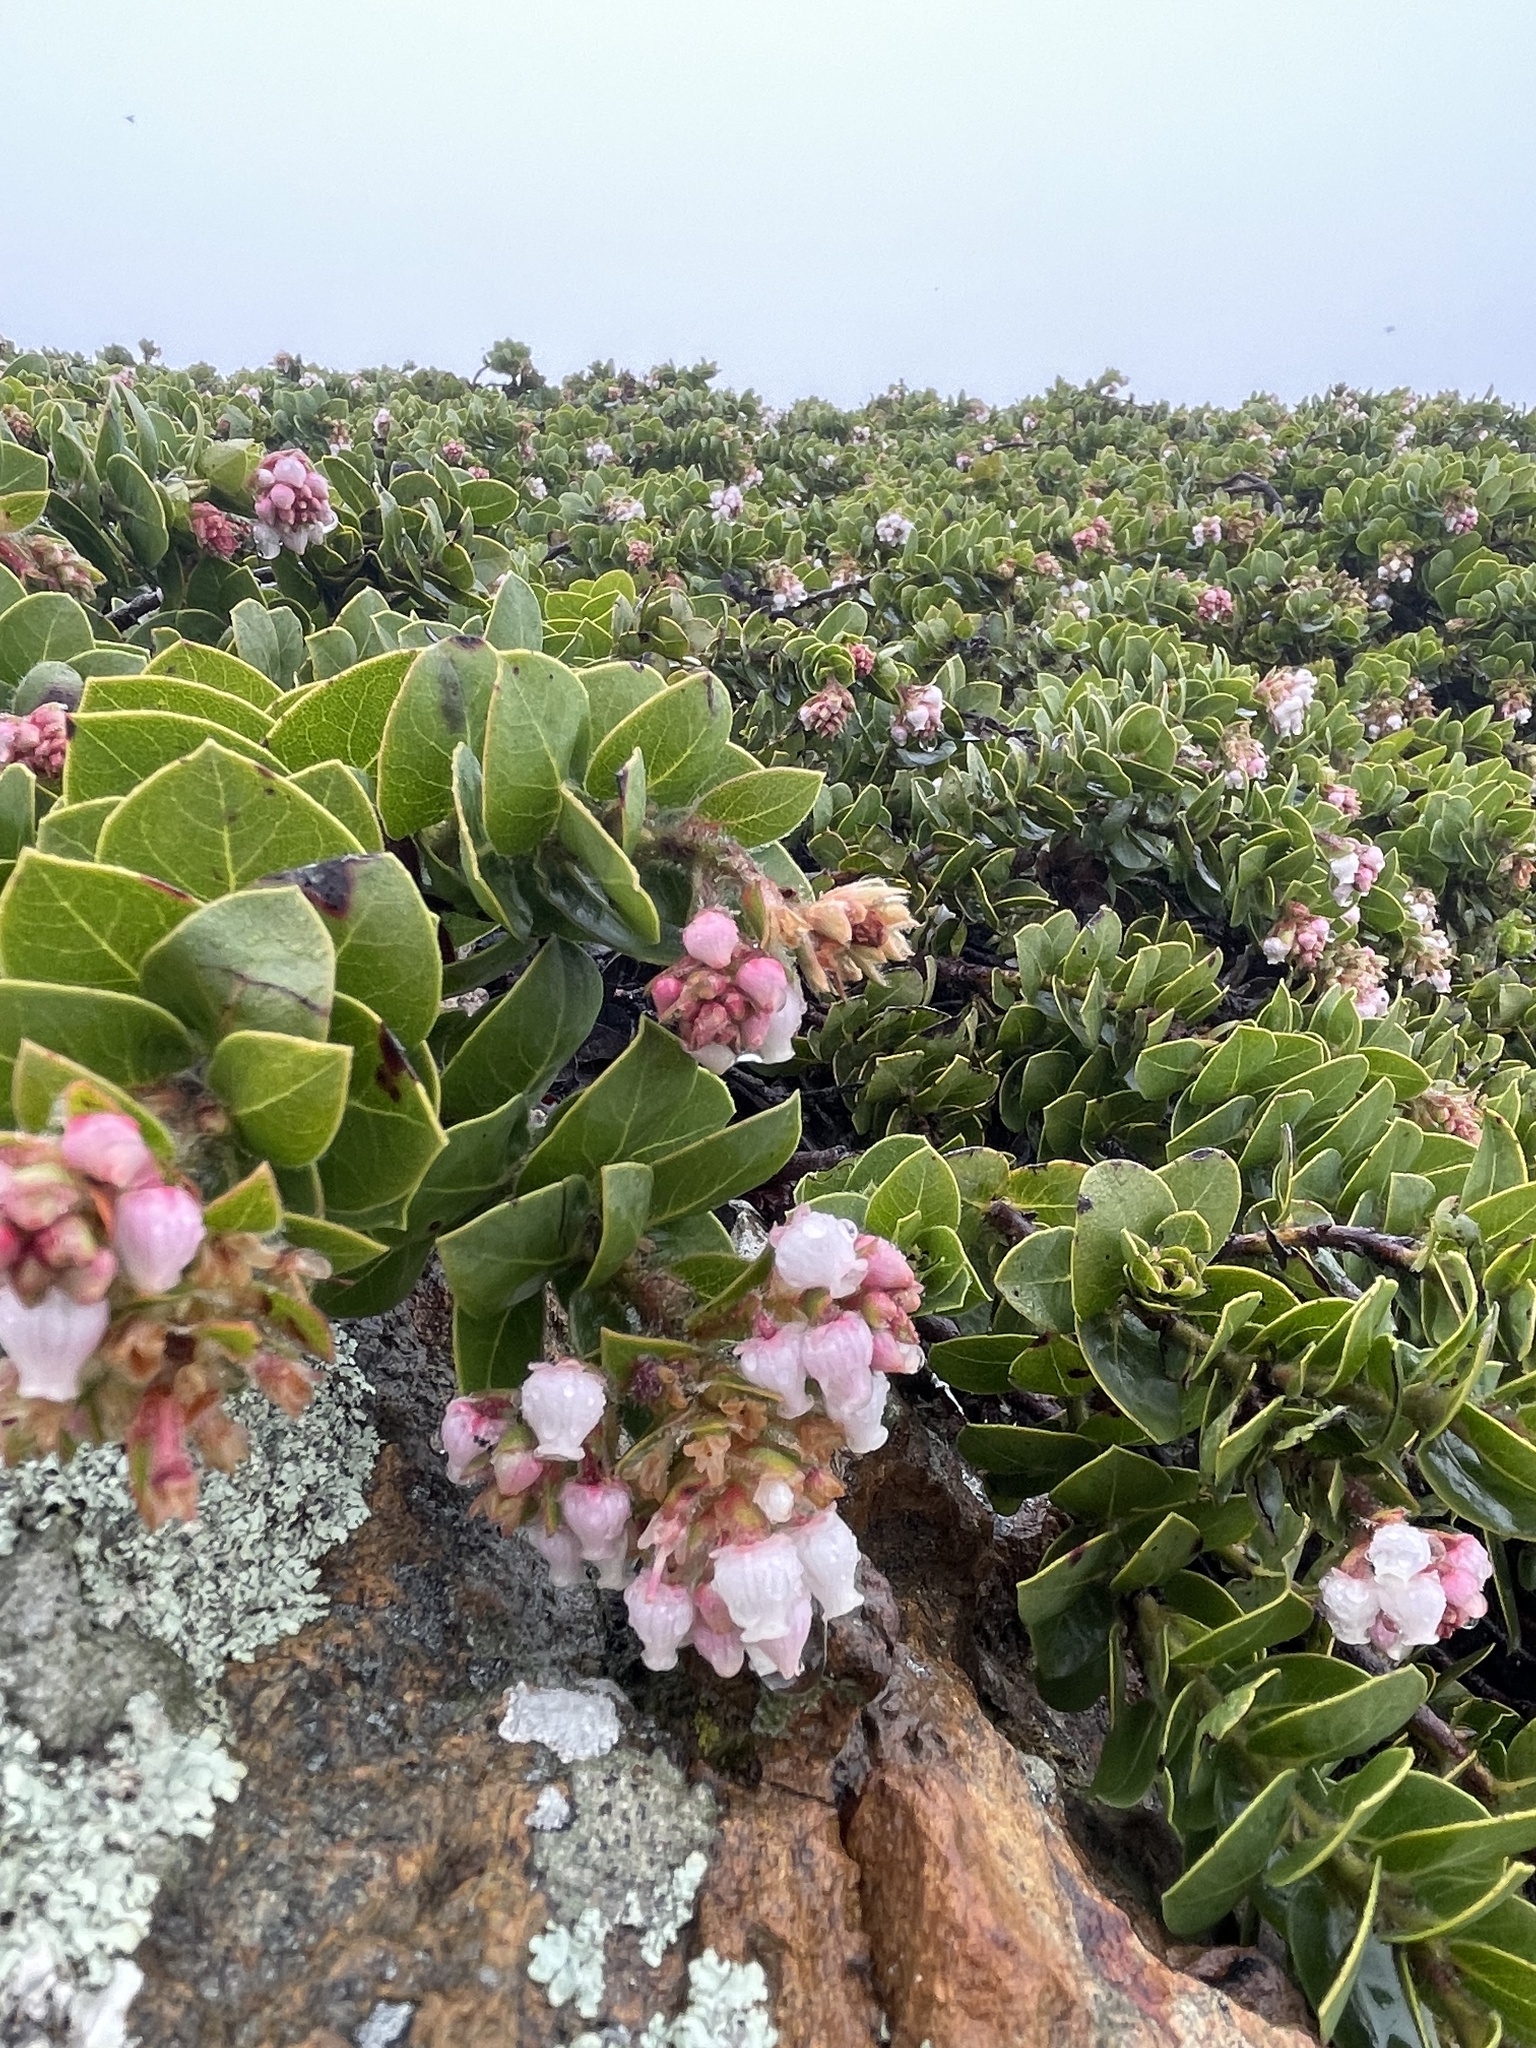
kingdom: Plantae
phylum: Tracheophyta
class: Magnoliopsida
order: Ericales
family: Ericaceae
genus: Arctostaphylos
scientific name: Arctostaphylos imbricata
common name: San bruno mountain manzanita
